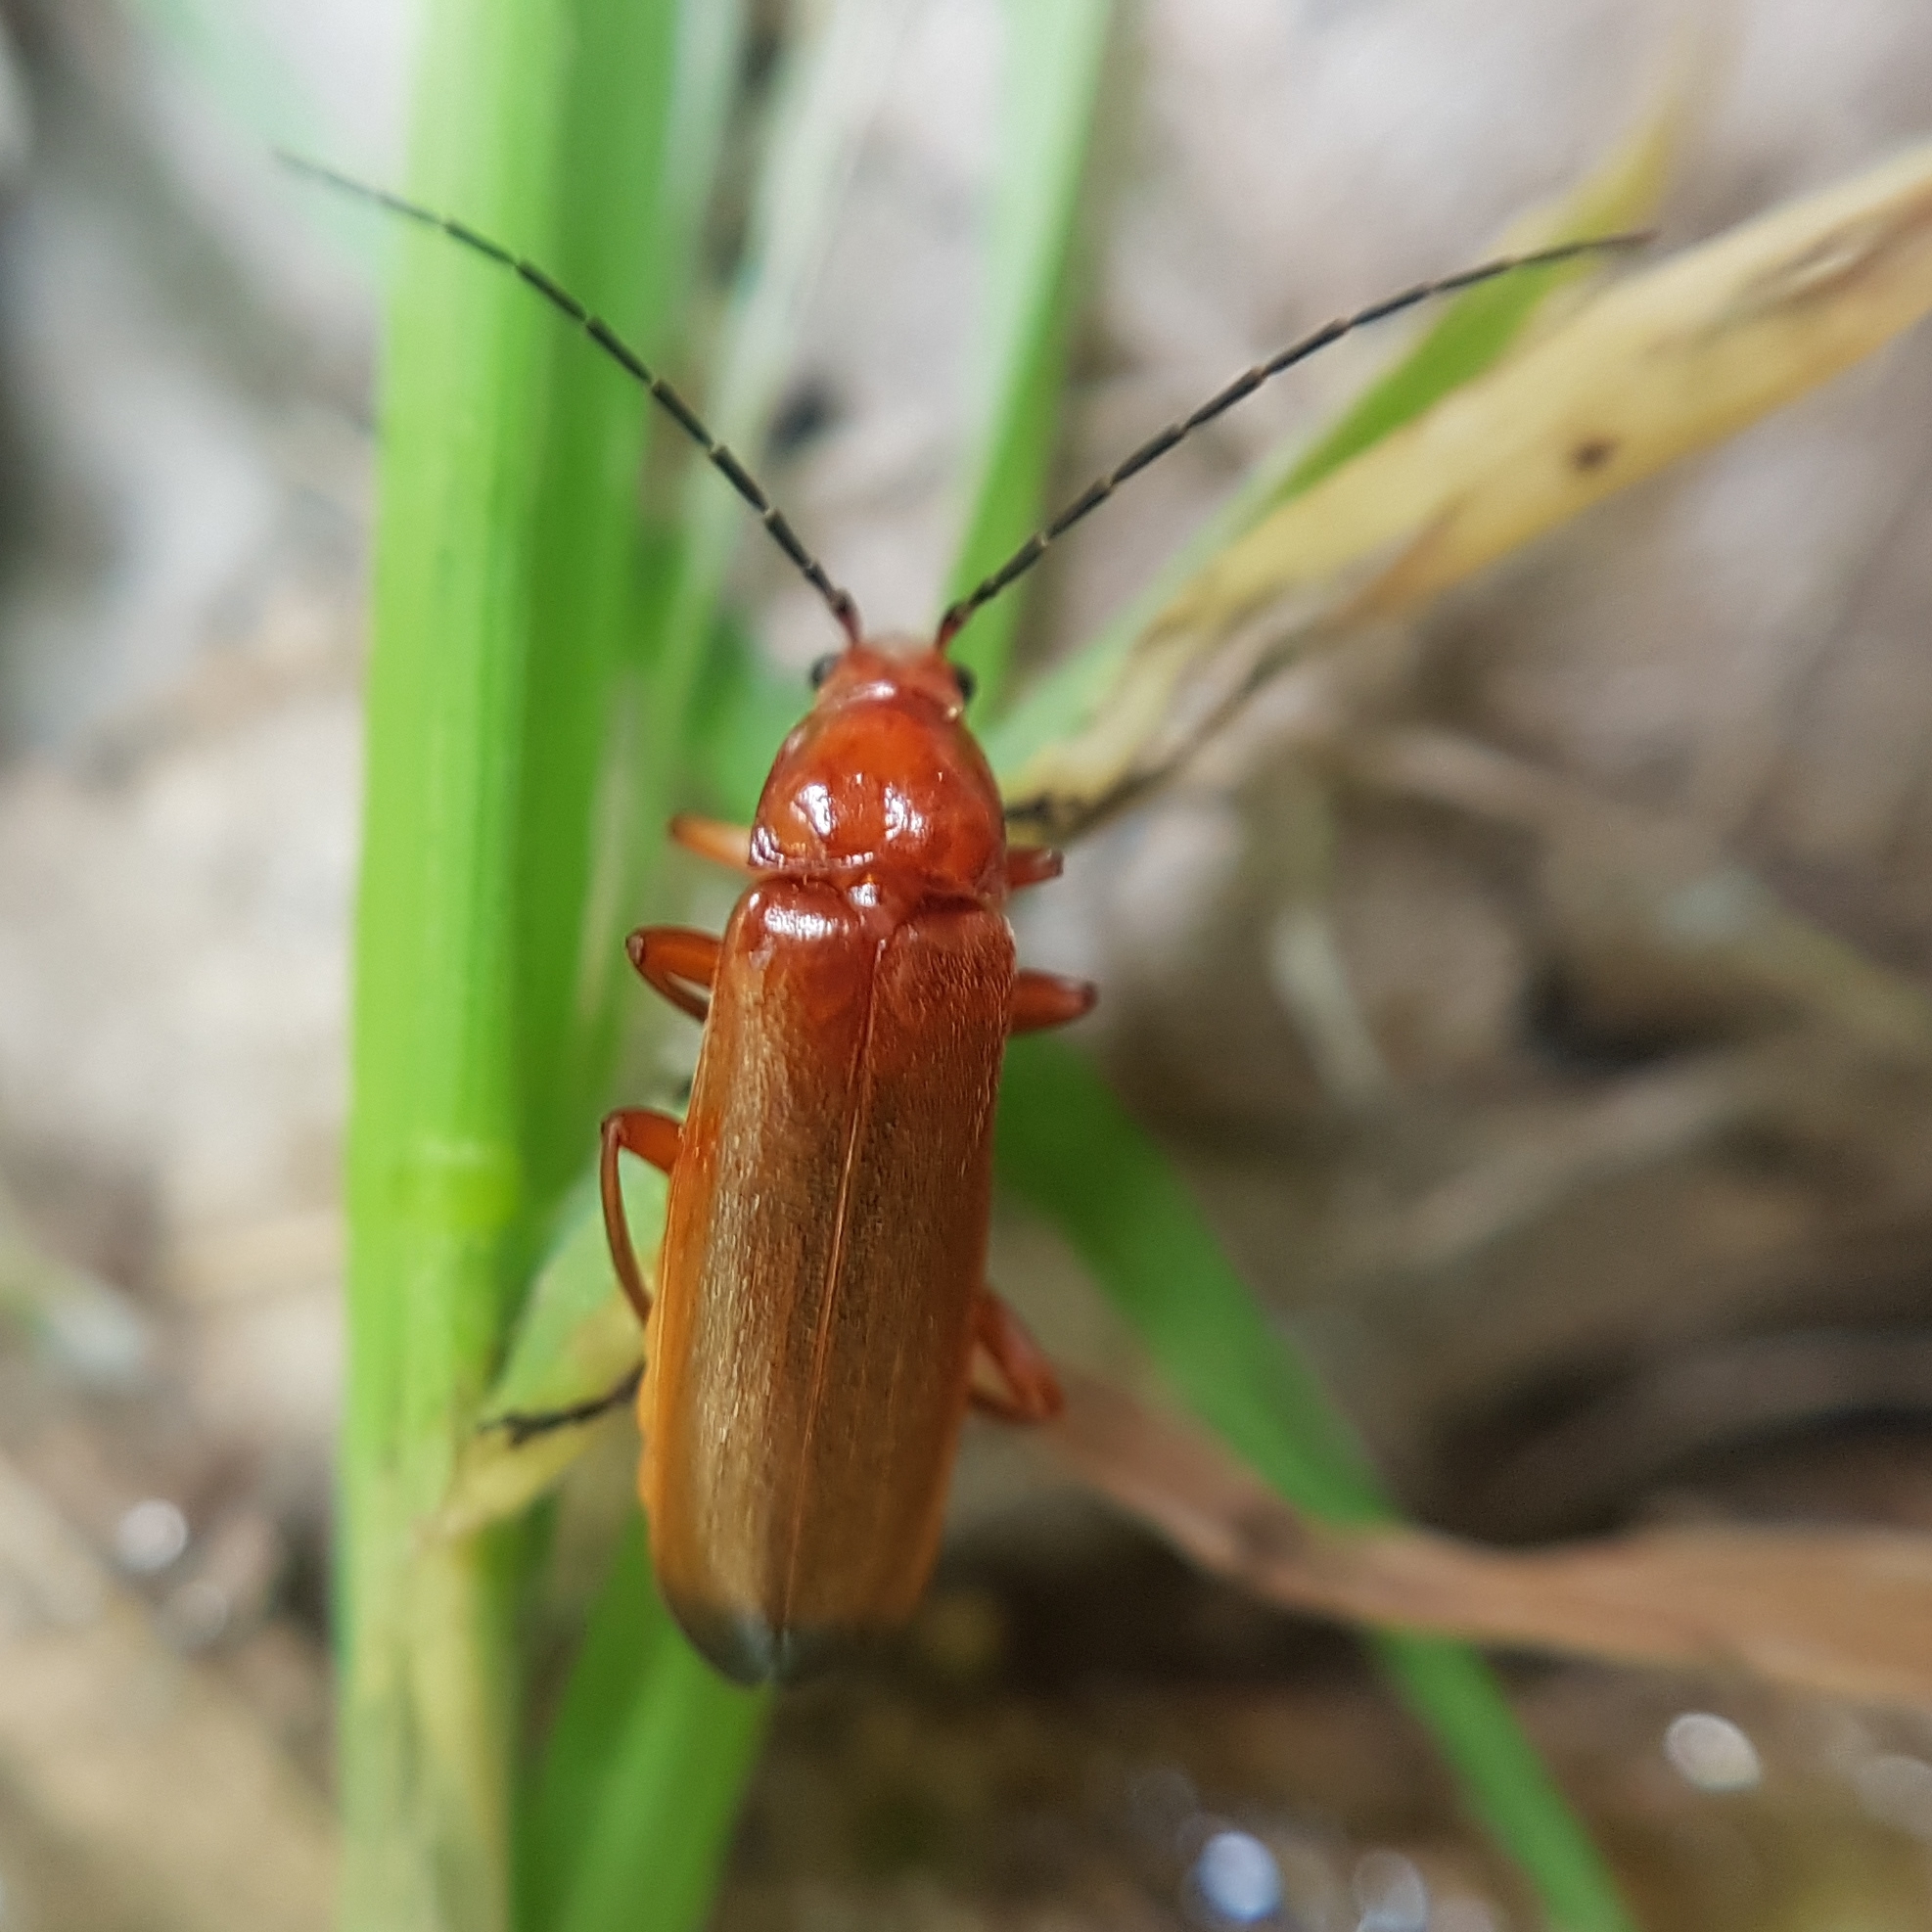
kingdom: Animalia
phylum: Arthropoda
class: Insecta
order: Coleoptera
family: Cantharidae
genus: Rhagonycha
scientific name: Rhagonycha fulva
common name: Common red soldier beetle
